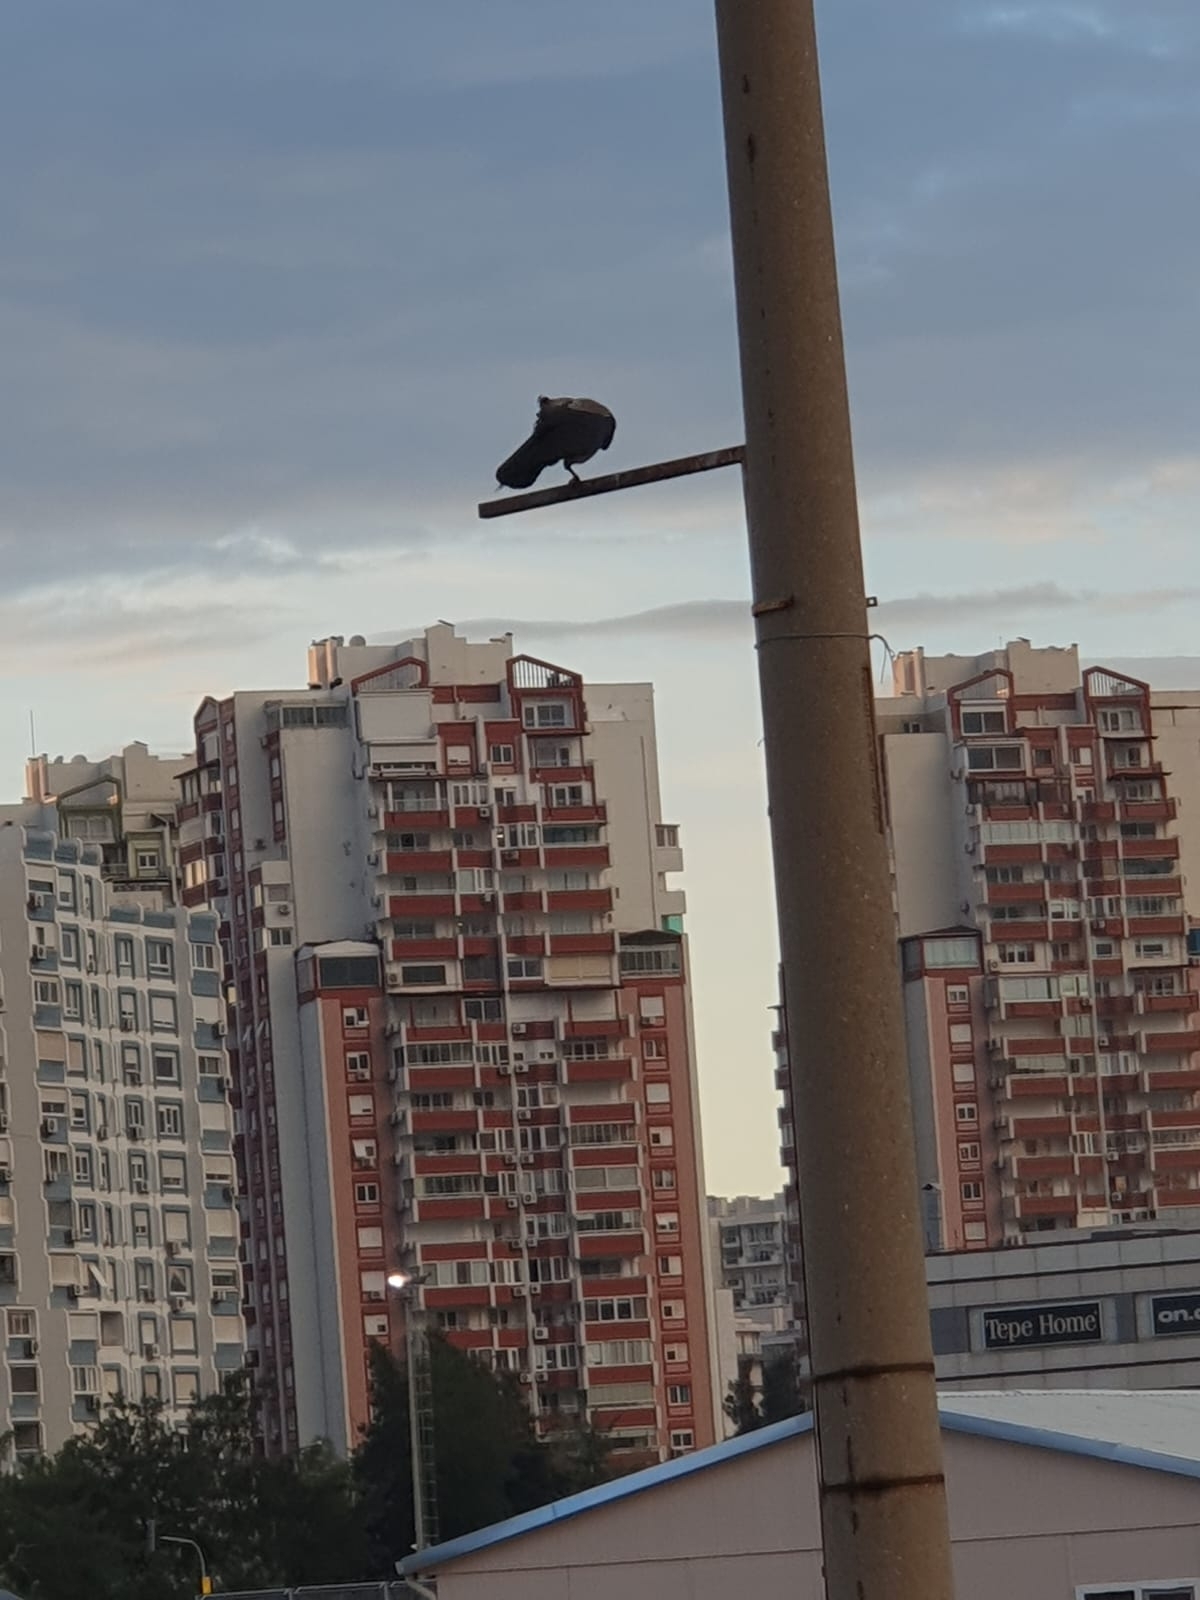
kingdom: Animalia
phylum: Chordata
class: Aves
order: Passeriformes
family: Corvidae
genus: Corvus
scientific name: Corvus cornix
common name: Hooded crow
